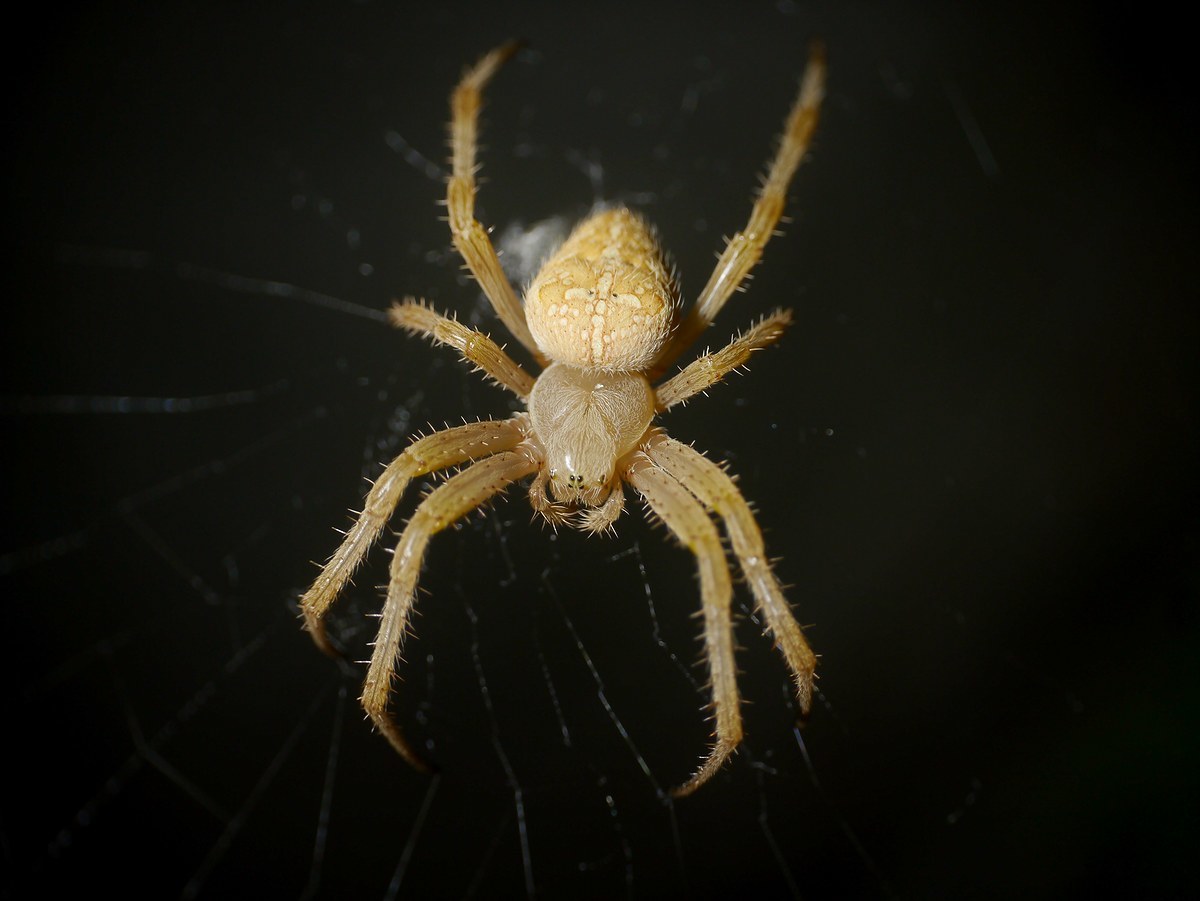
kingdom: Animalia
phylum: Arthropoda
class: Arachnida
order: Araneae
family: Araneidae
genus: Araneus
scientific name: Araneus diadematus
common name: Cross orbweaver
